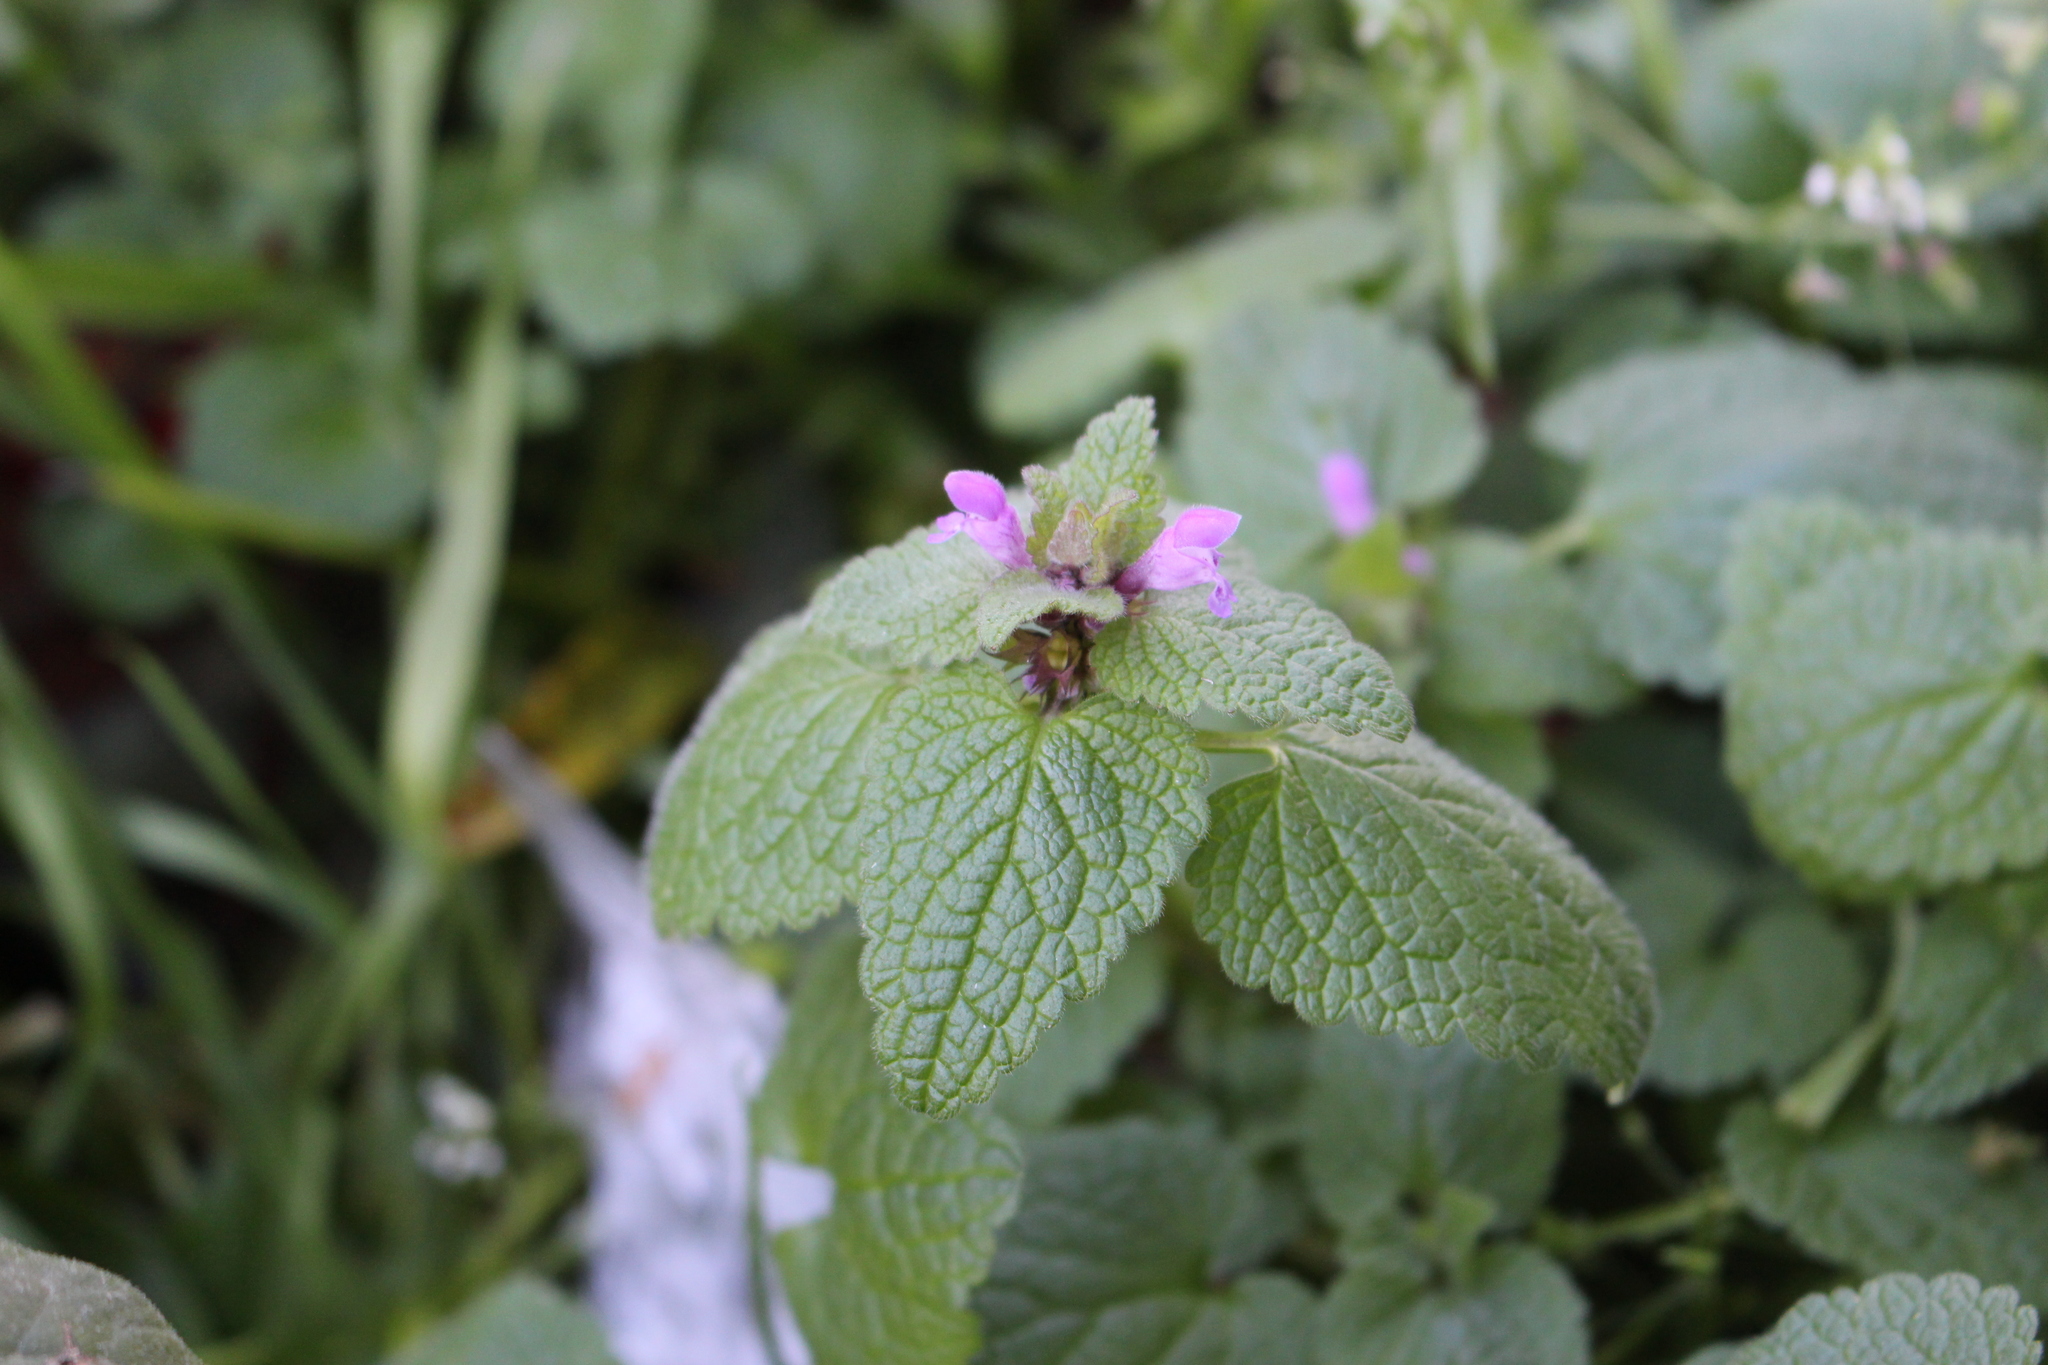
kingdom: Plantae
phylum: Tracheophyta
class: Magnoliopsida
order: Lamiales
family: Lamiaceae
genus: Lamium
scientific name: Lamium purpureum
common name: Red dead-nettle
